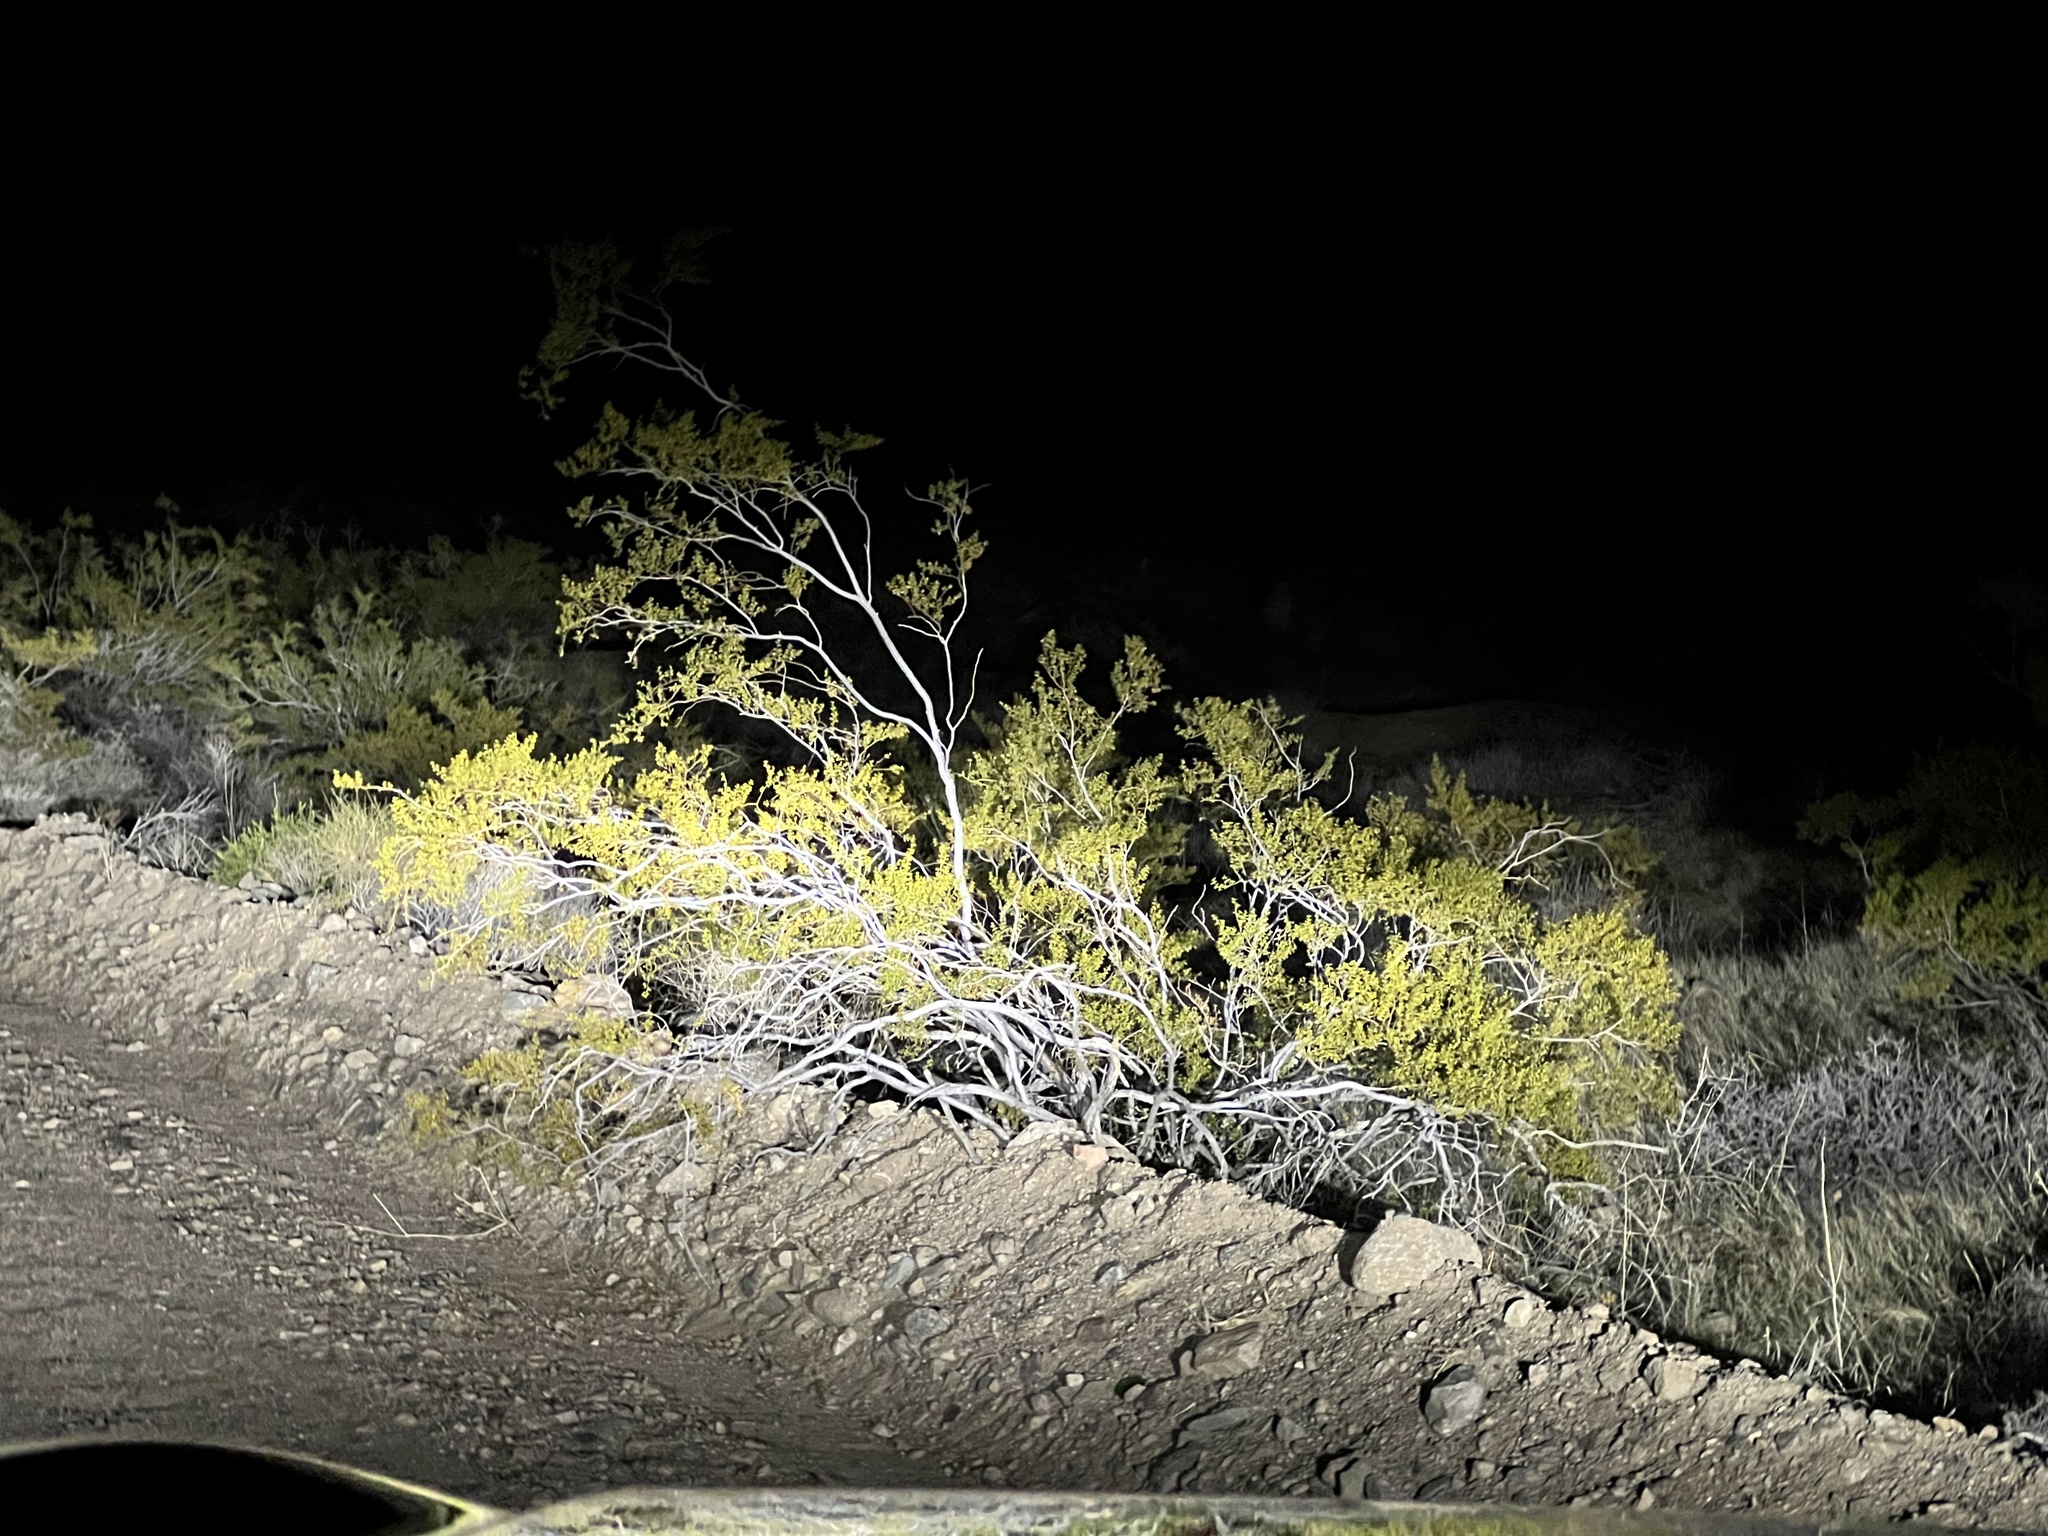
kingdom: Plantae
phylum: Tracheophyta
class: Magnoliopsida
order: Zygophyllales
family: Zygophyllaceae
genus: Larrea
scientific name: Larrea tridentata
